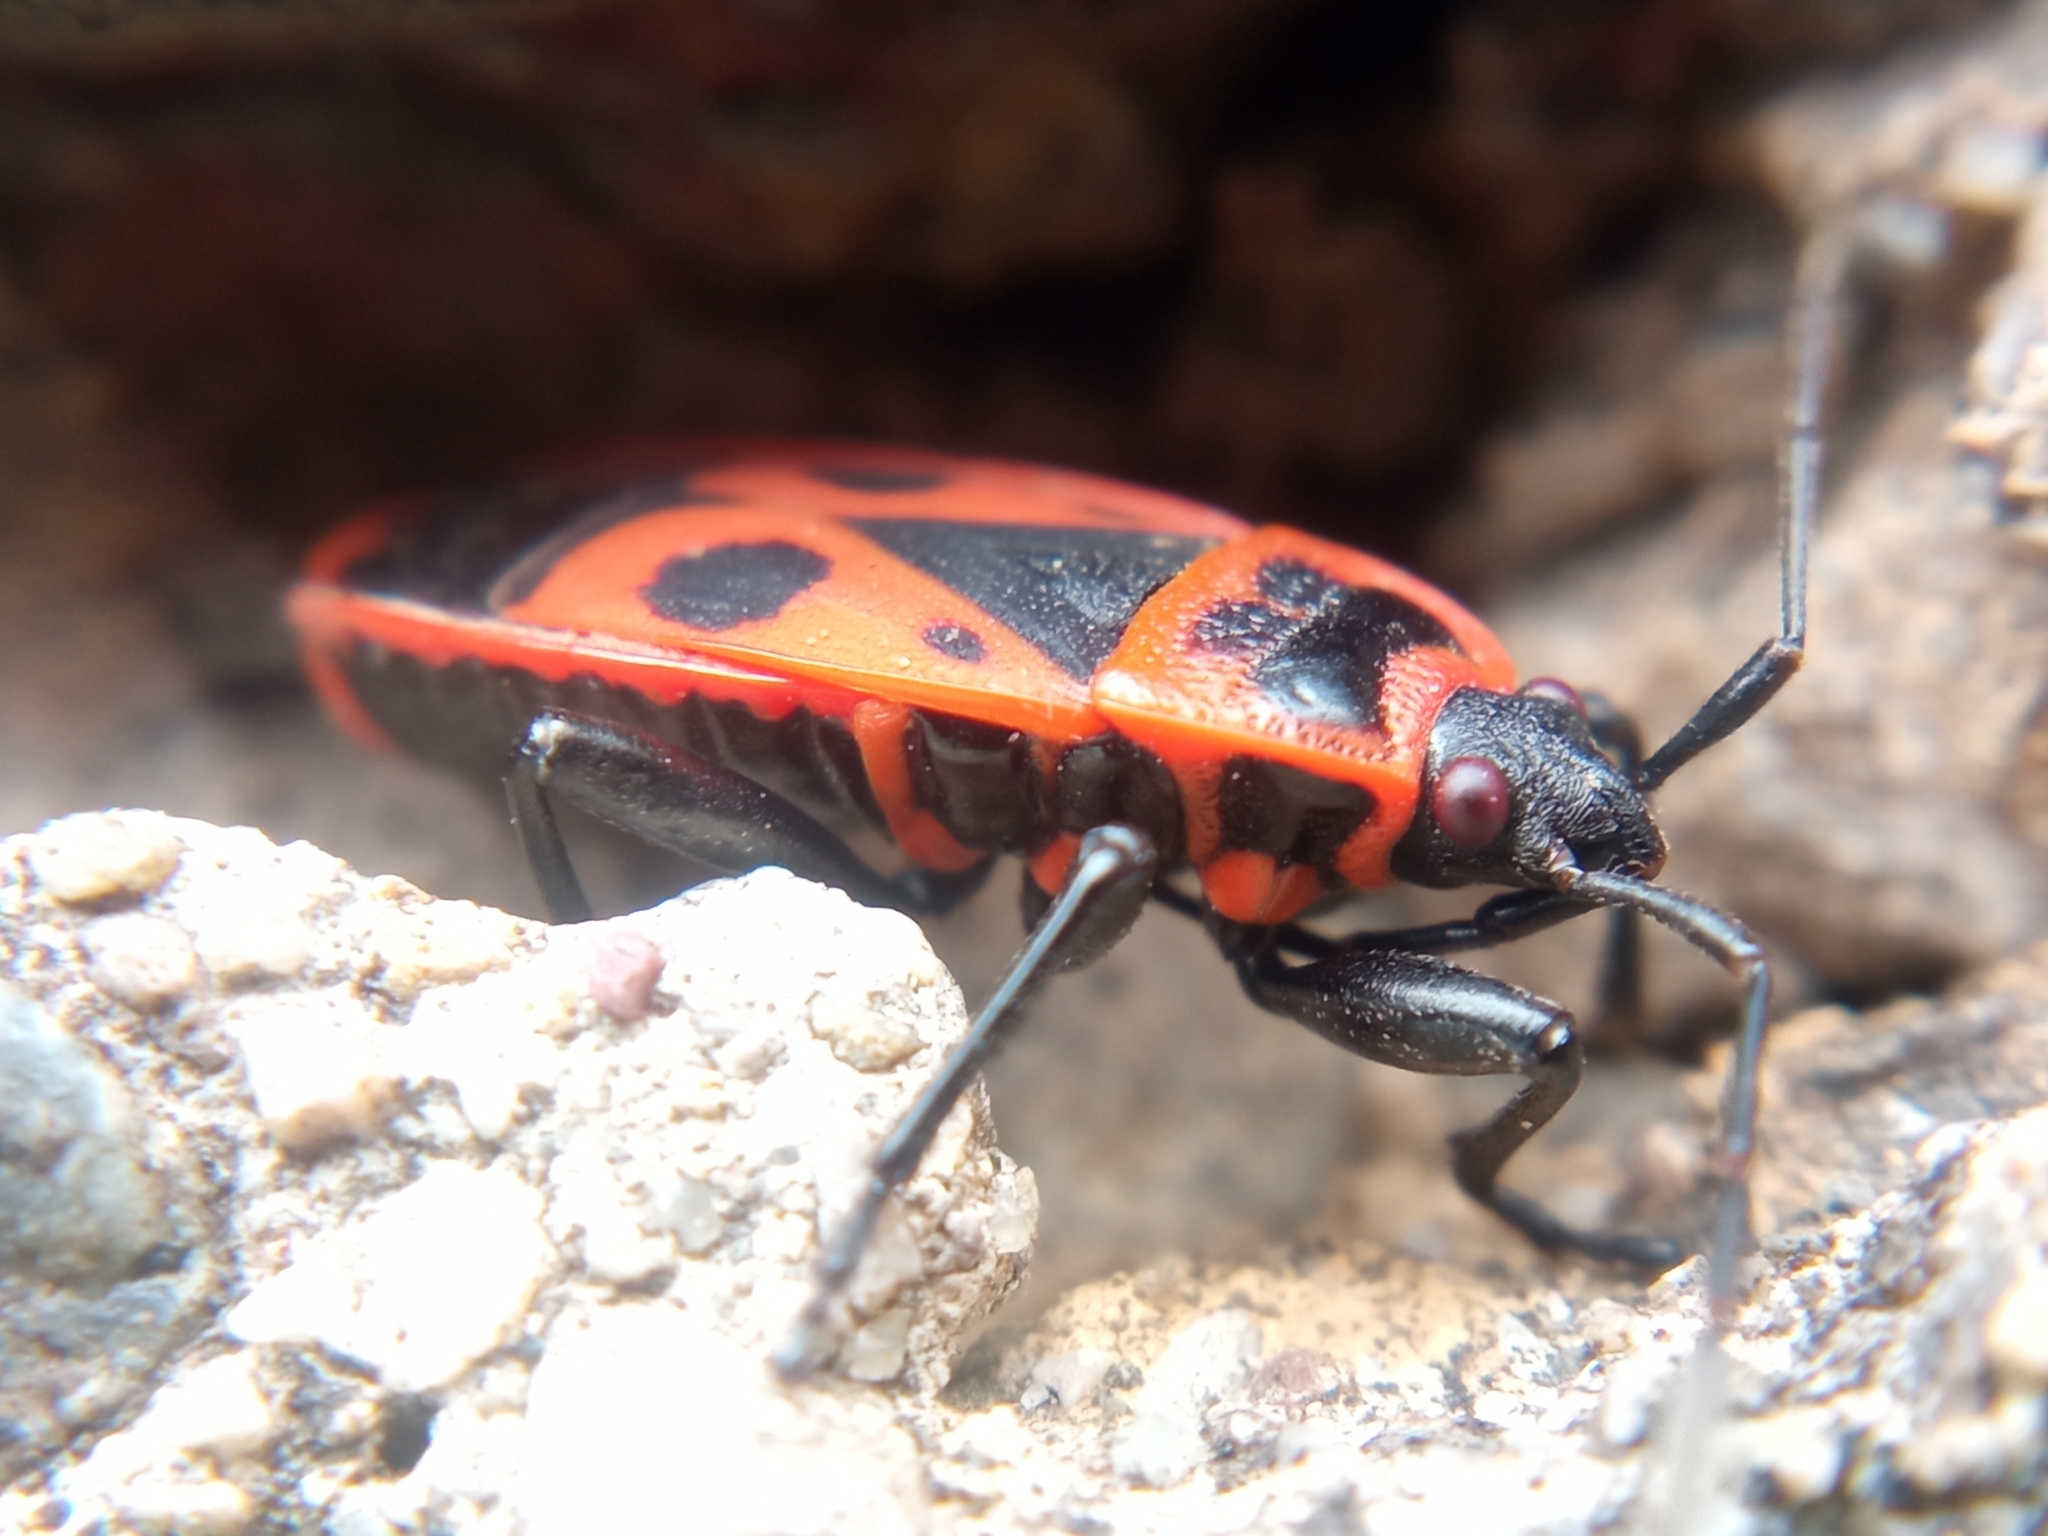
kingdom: Animalia
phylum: Arthropoda
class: Insecta
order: Hemiptera
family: Pyrrhocoridae
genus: Pyrrhocoris
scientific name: Pyrrhocoris apterus
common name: Firebug
